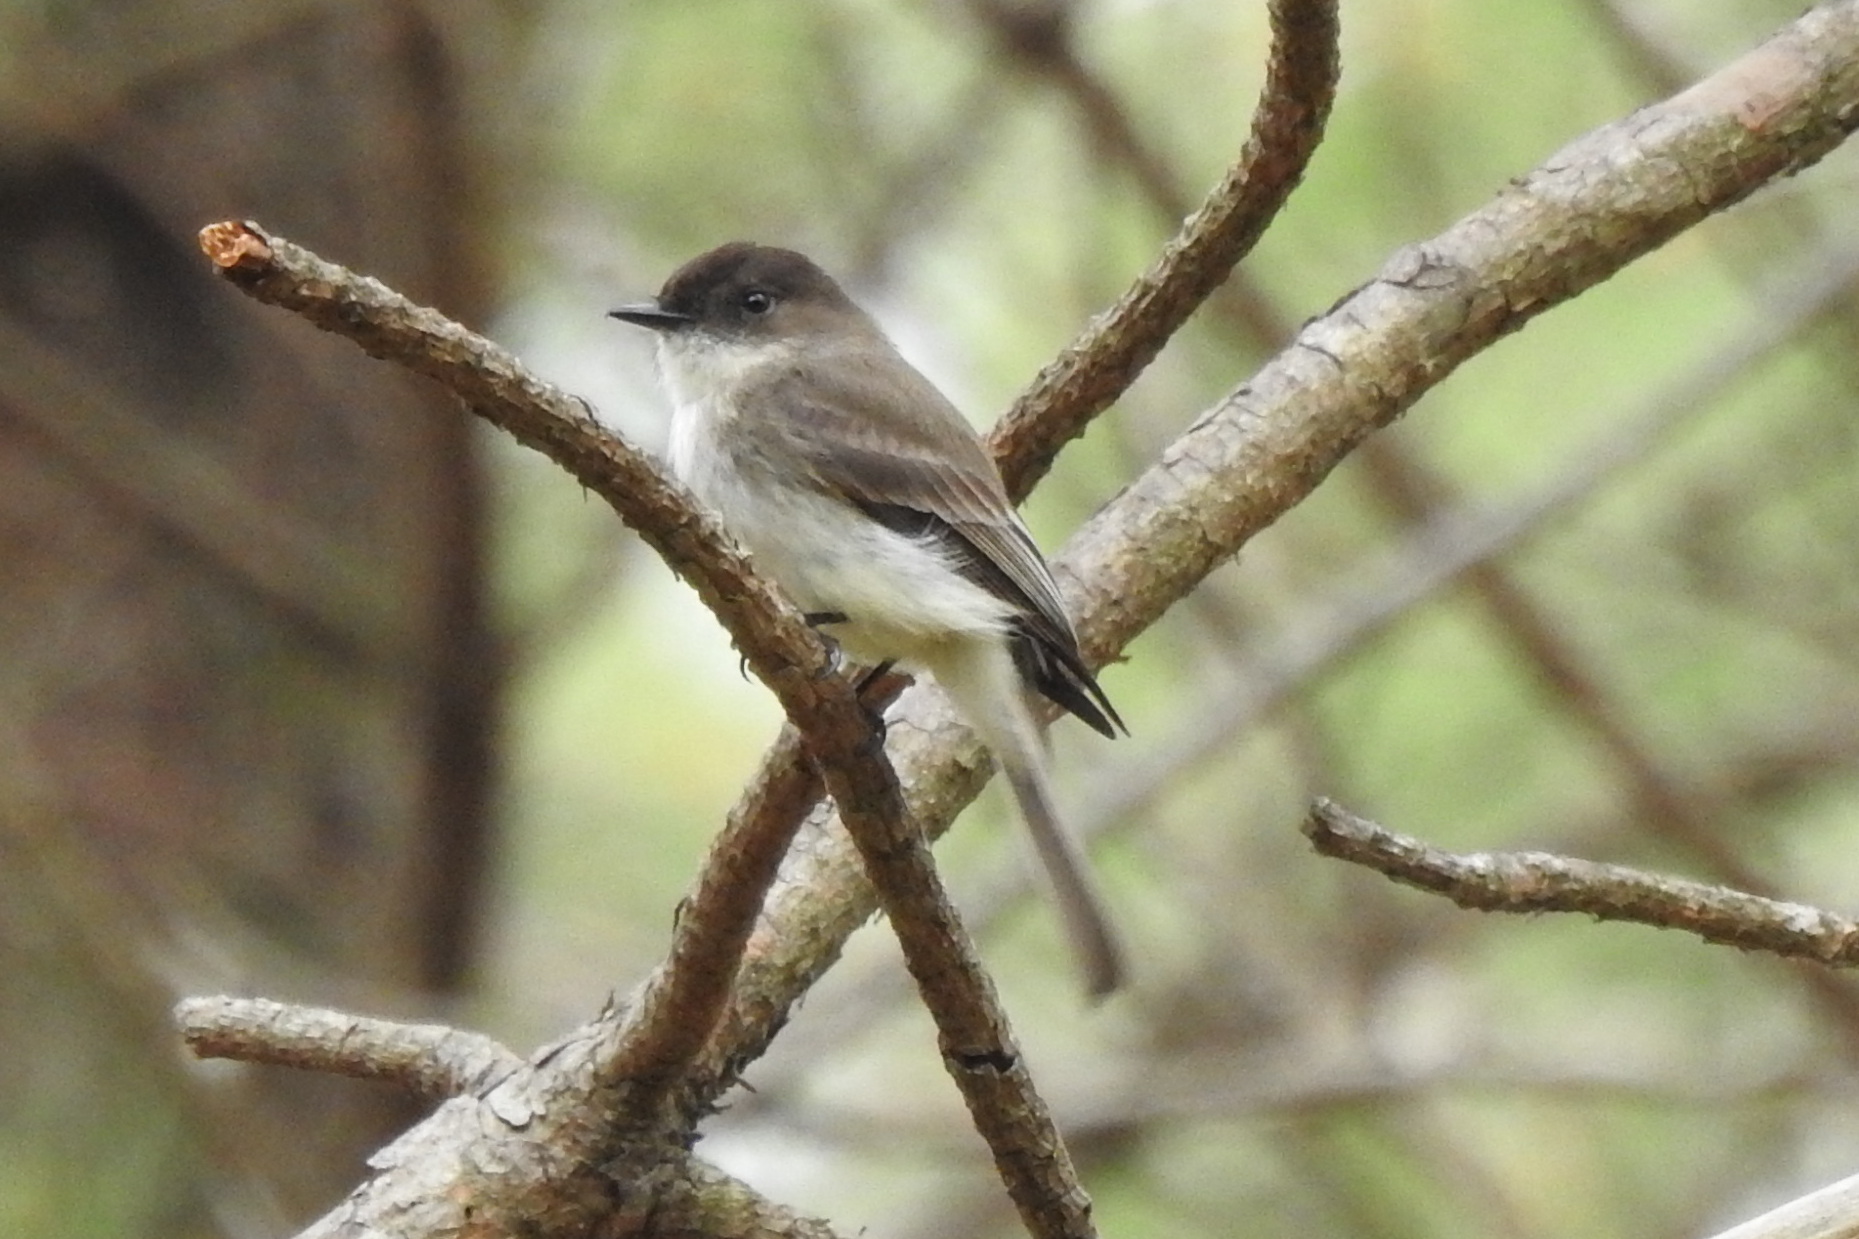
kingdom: Animalia
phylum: Chordata
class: Aves
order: Passeriformes
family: Tyrannidae
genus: Sayornis
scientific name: Sayornis phoebe
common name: Eastern phoebe
